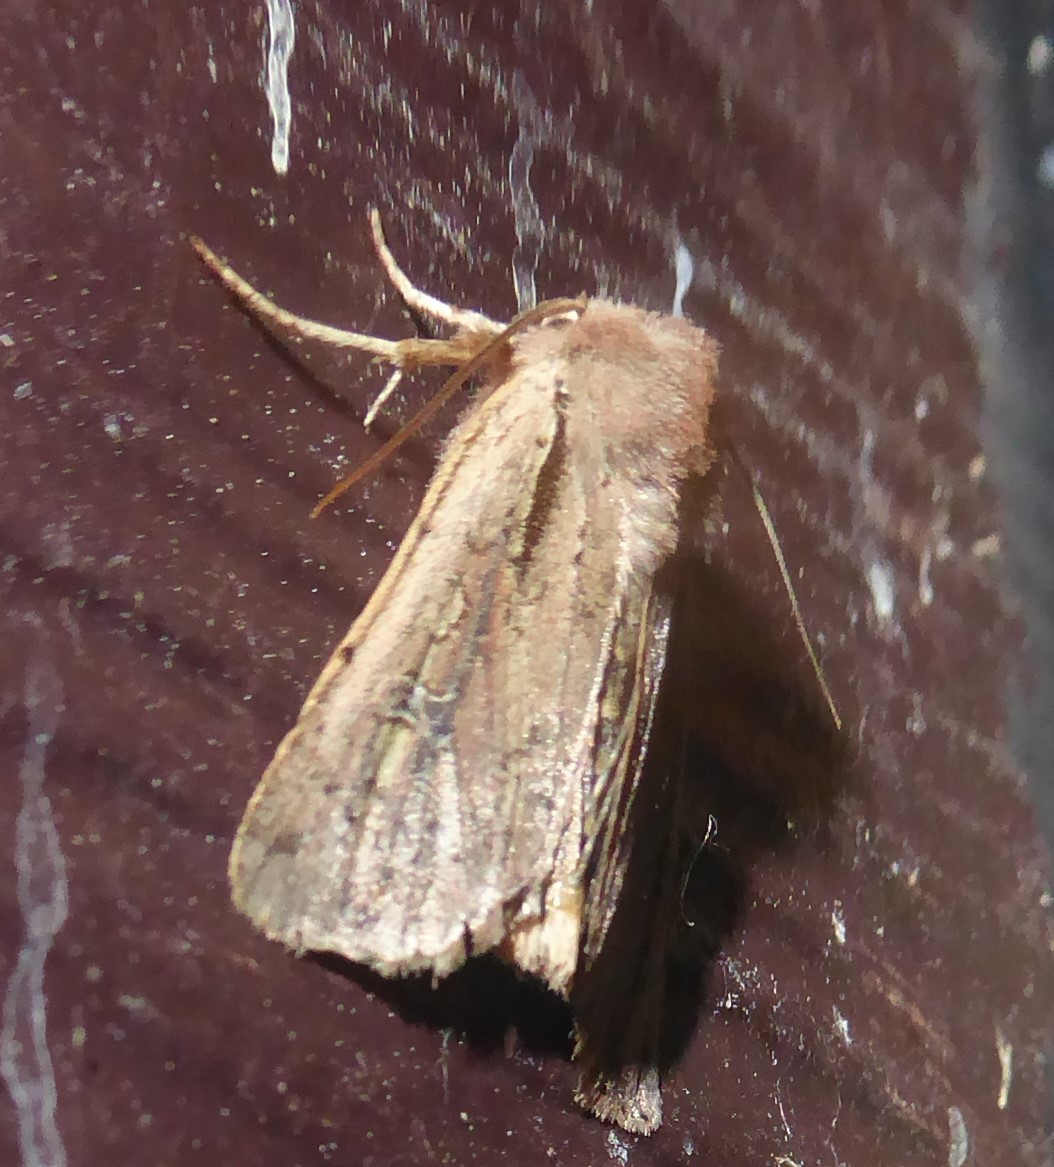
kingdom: Animalia
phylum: Arthropoda
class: Insecta
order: Lepidoptera
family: Noctuidae
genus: Ichneutica
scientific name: Ichneutica atristriga
